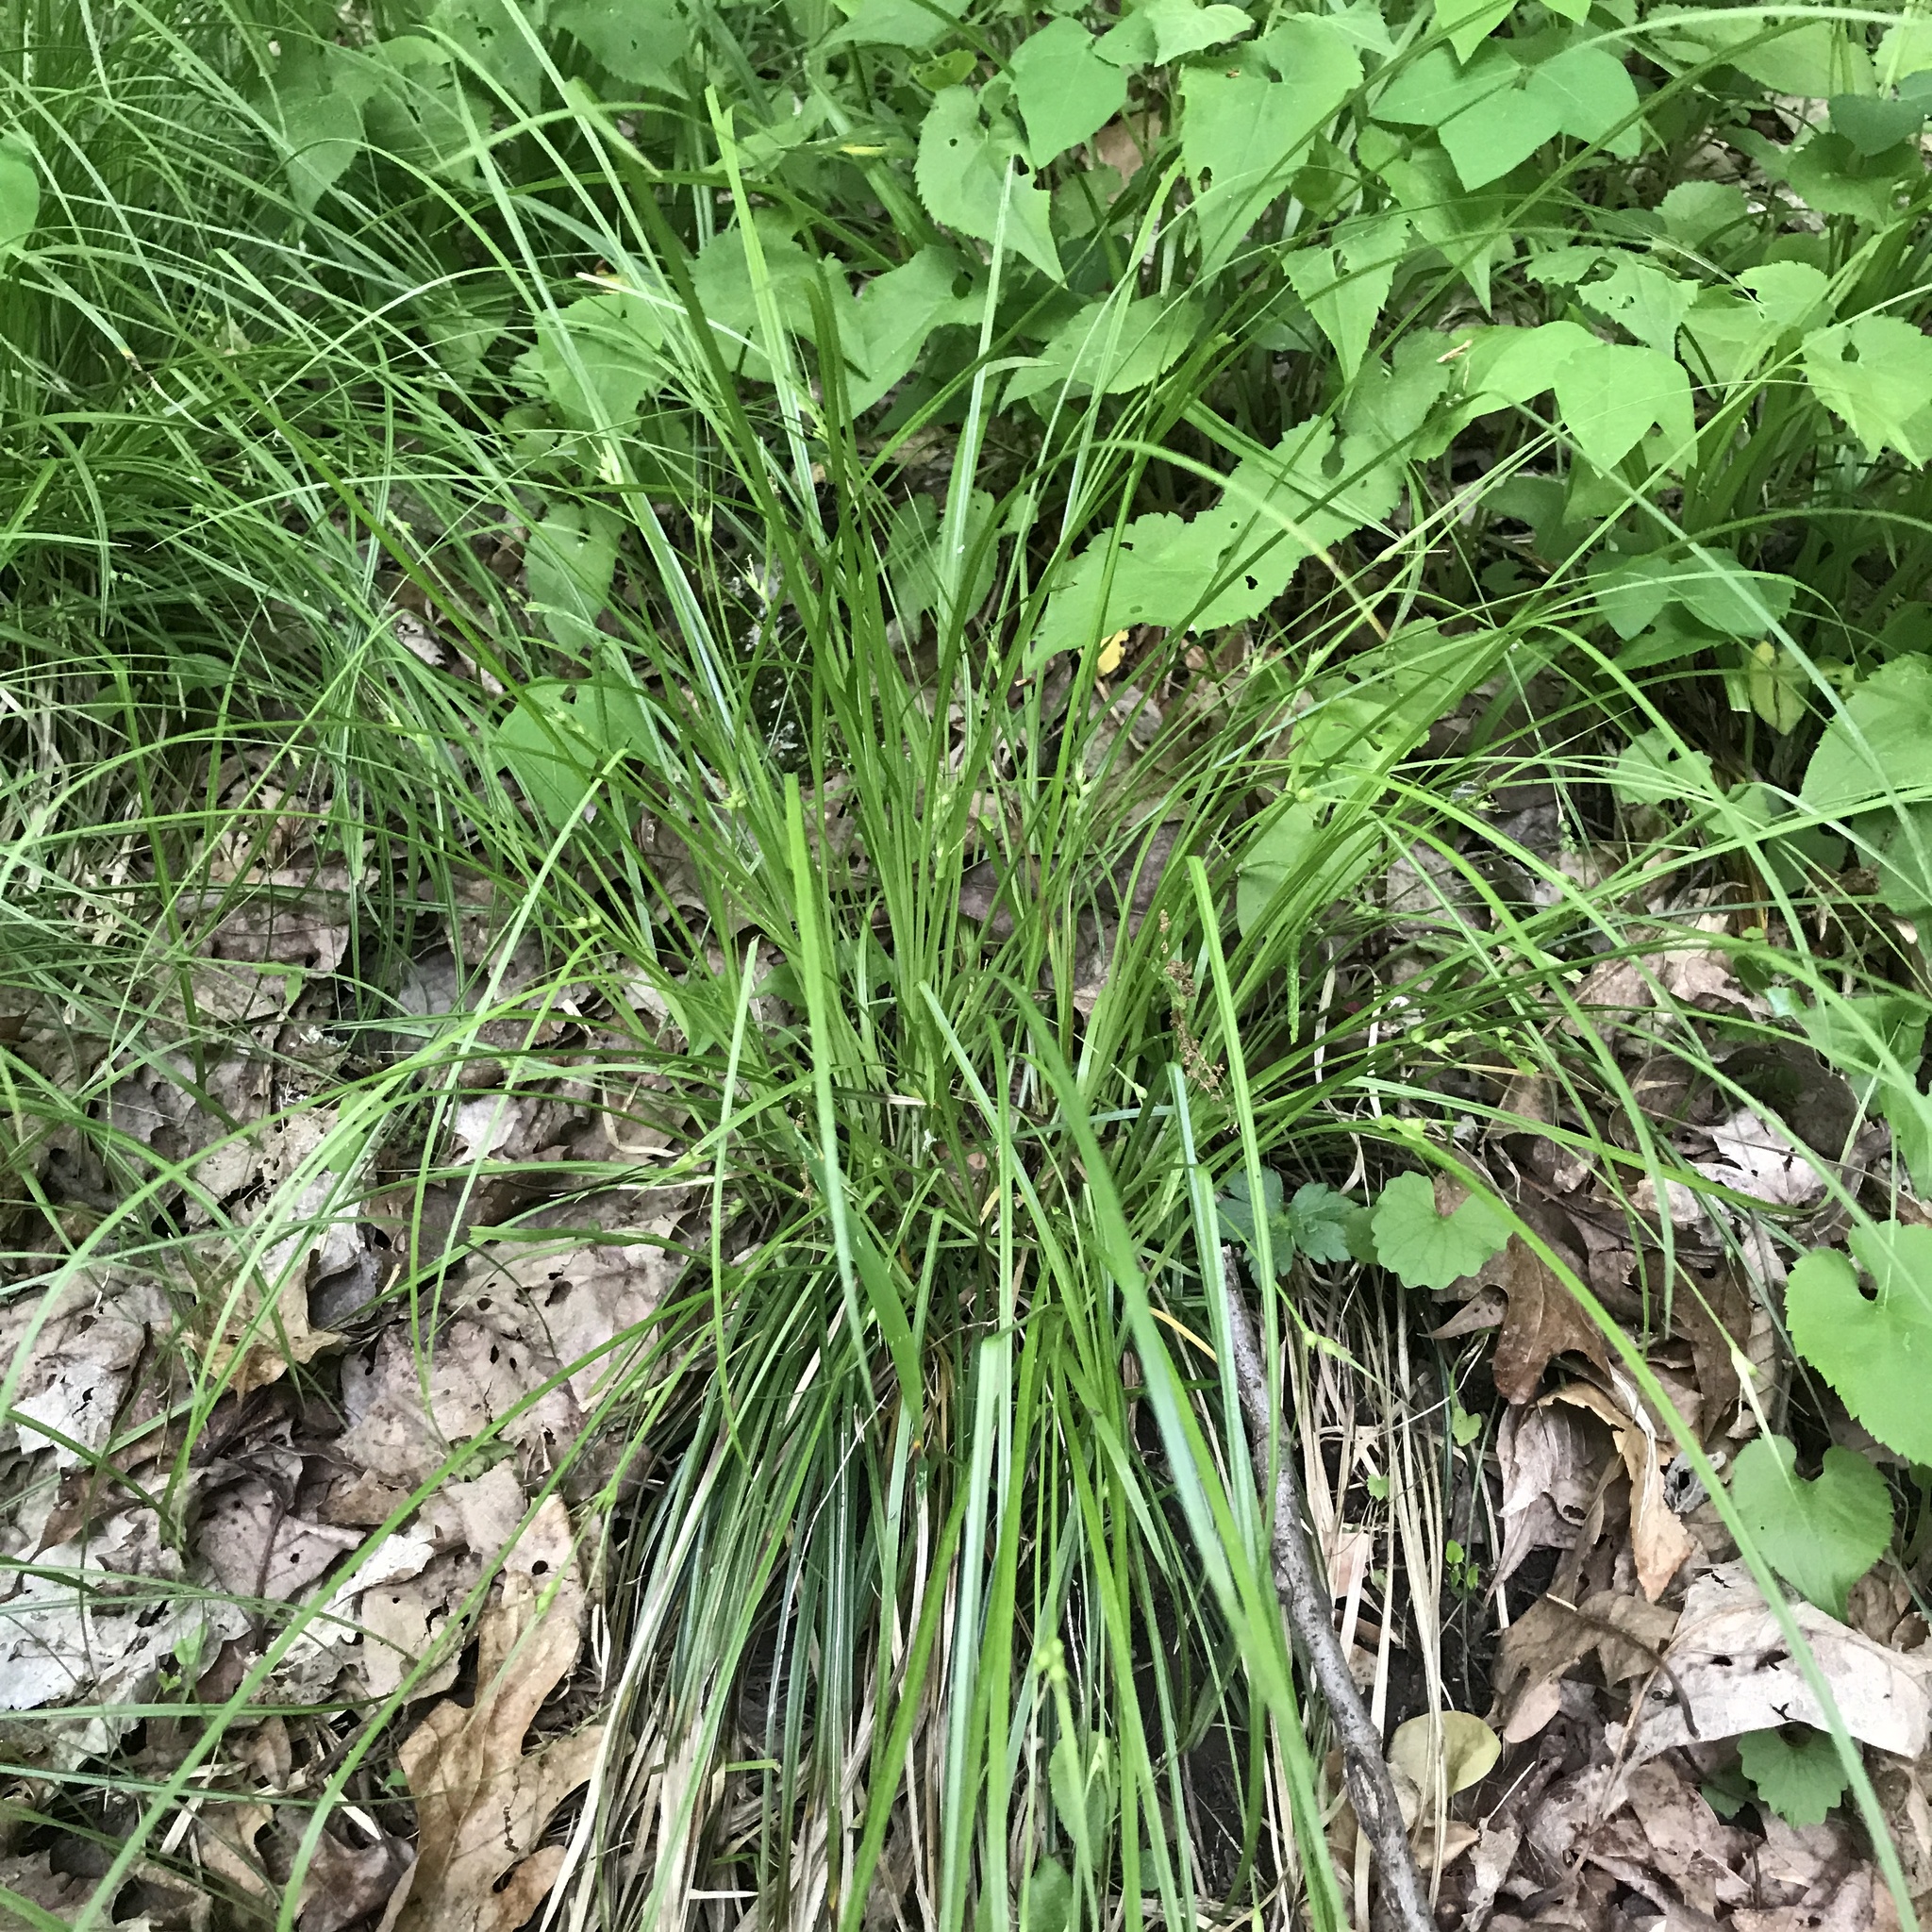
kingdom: Plantae
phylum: Tracheophyta
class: Liliopsida
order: Poales
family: Cyperaceae
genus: Carex
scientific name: Carex jamesii
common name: Grass sedge
